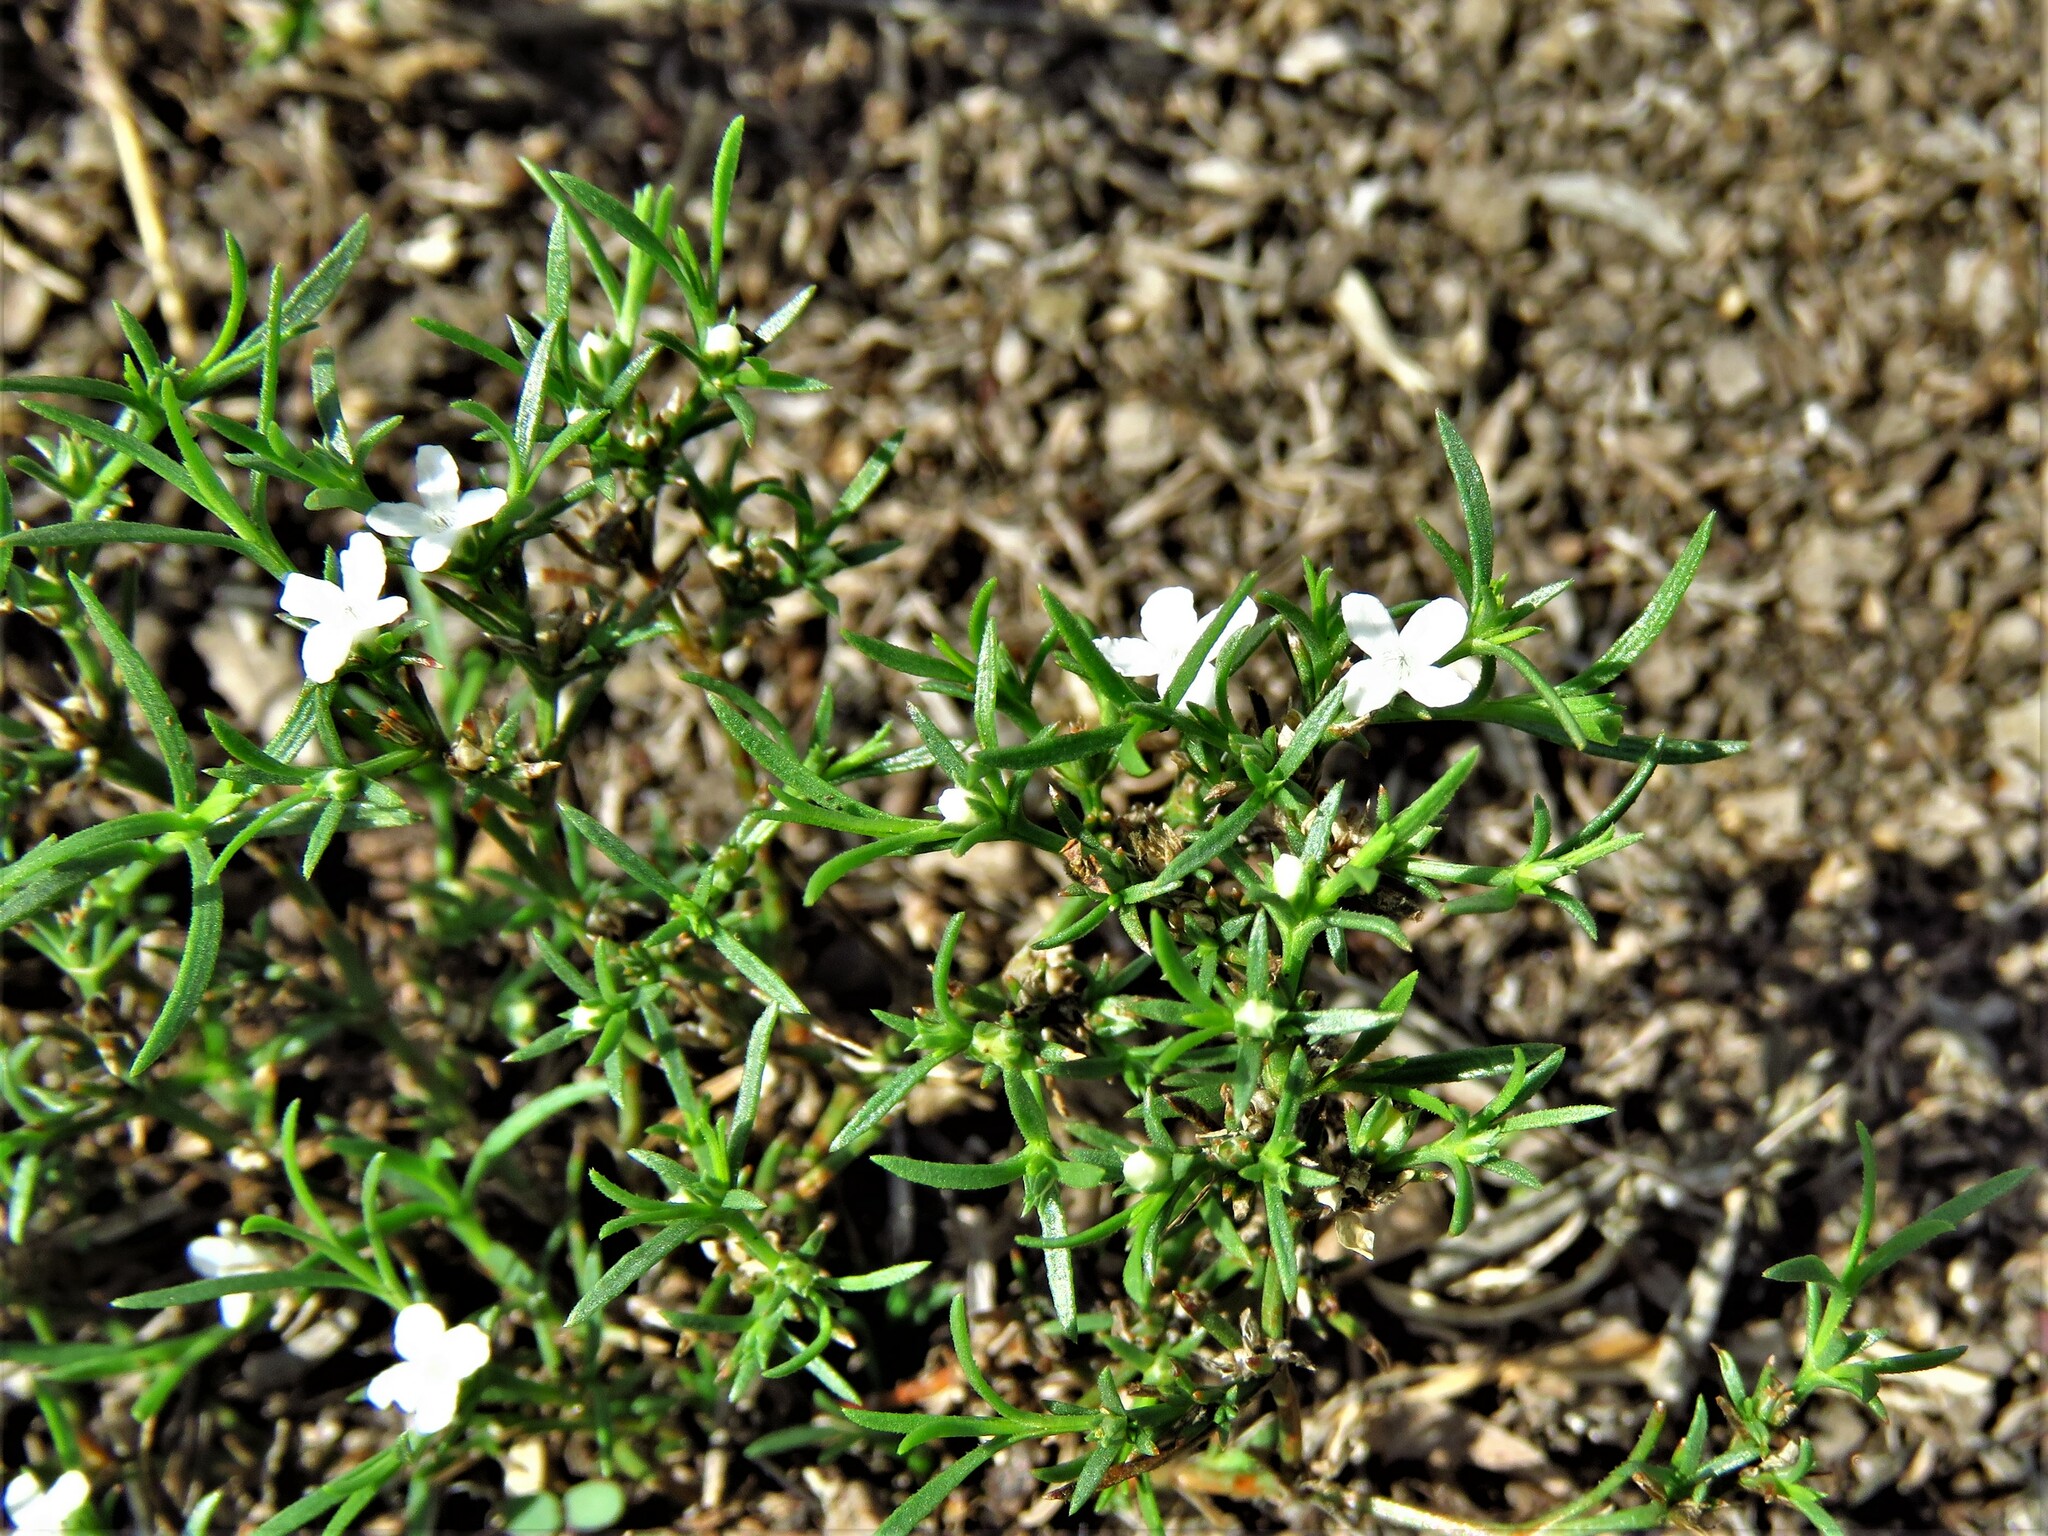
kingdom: Plantae
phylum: Tracheophyta
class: Magnoliopsida
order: Lamiales
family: Tetrachondraceae
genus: Polypremum
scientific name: Polypremum procumbens
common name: Juniper-leaf
